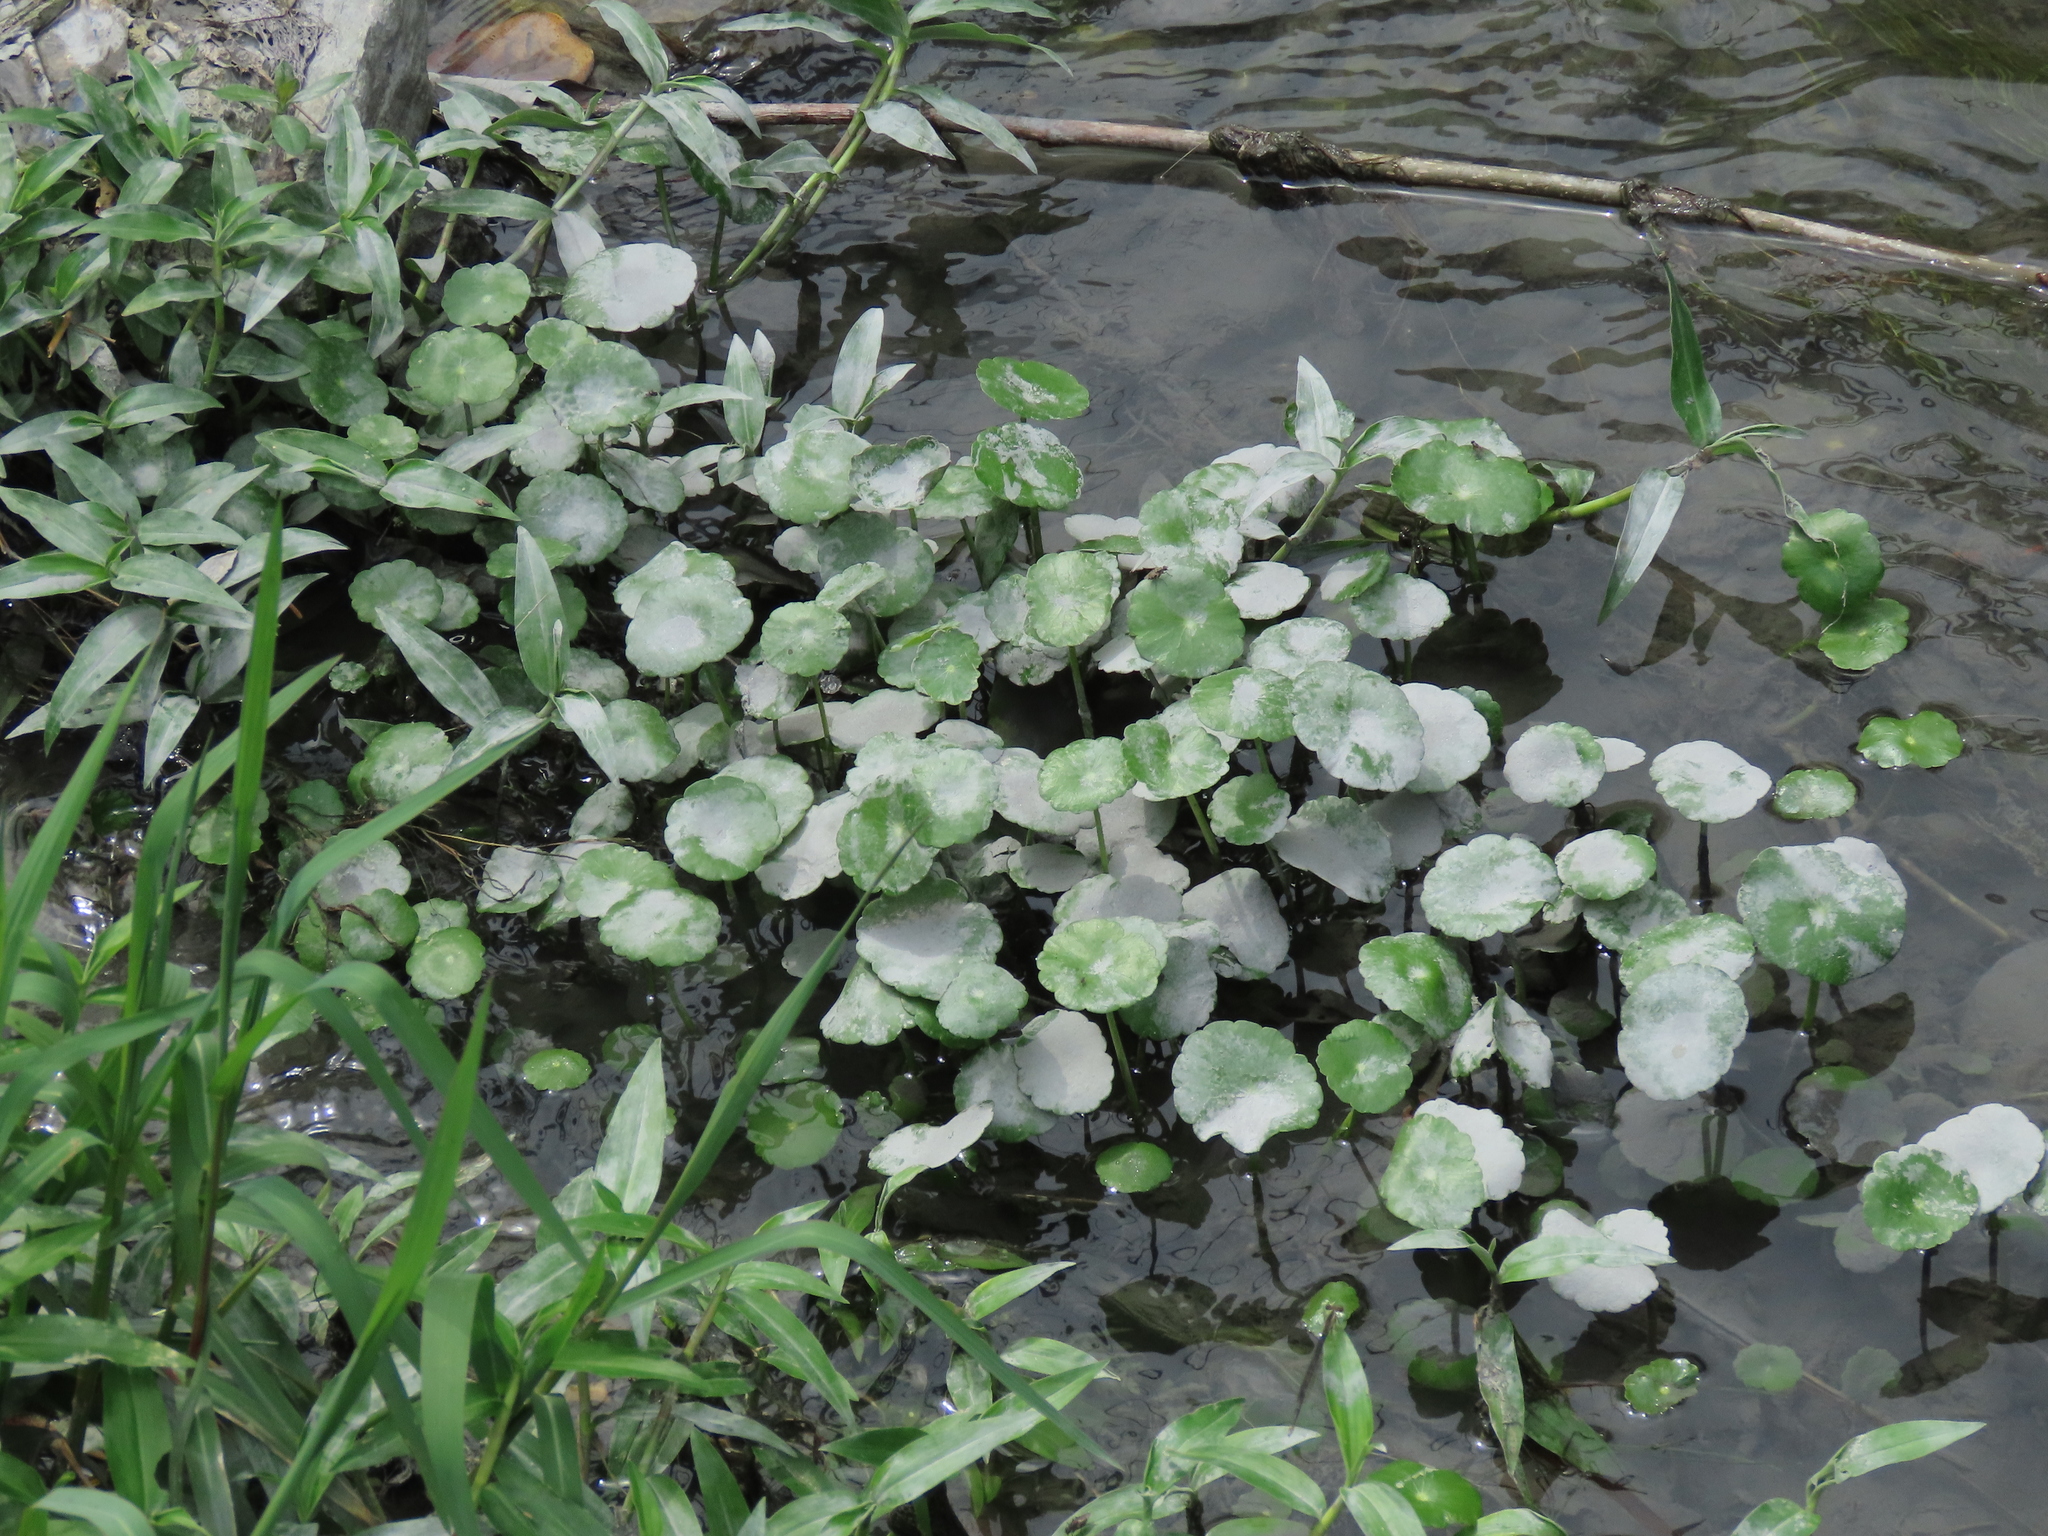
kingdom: Plantae
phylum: Tracheophyta
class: Magnoliopsida
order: Apiales
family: Araliaceae
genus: Hydrocotyle
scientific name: Hydrocotyle verticillata
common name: Whorled marshpennywort
